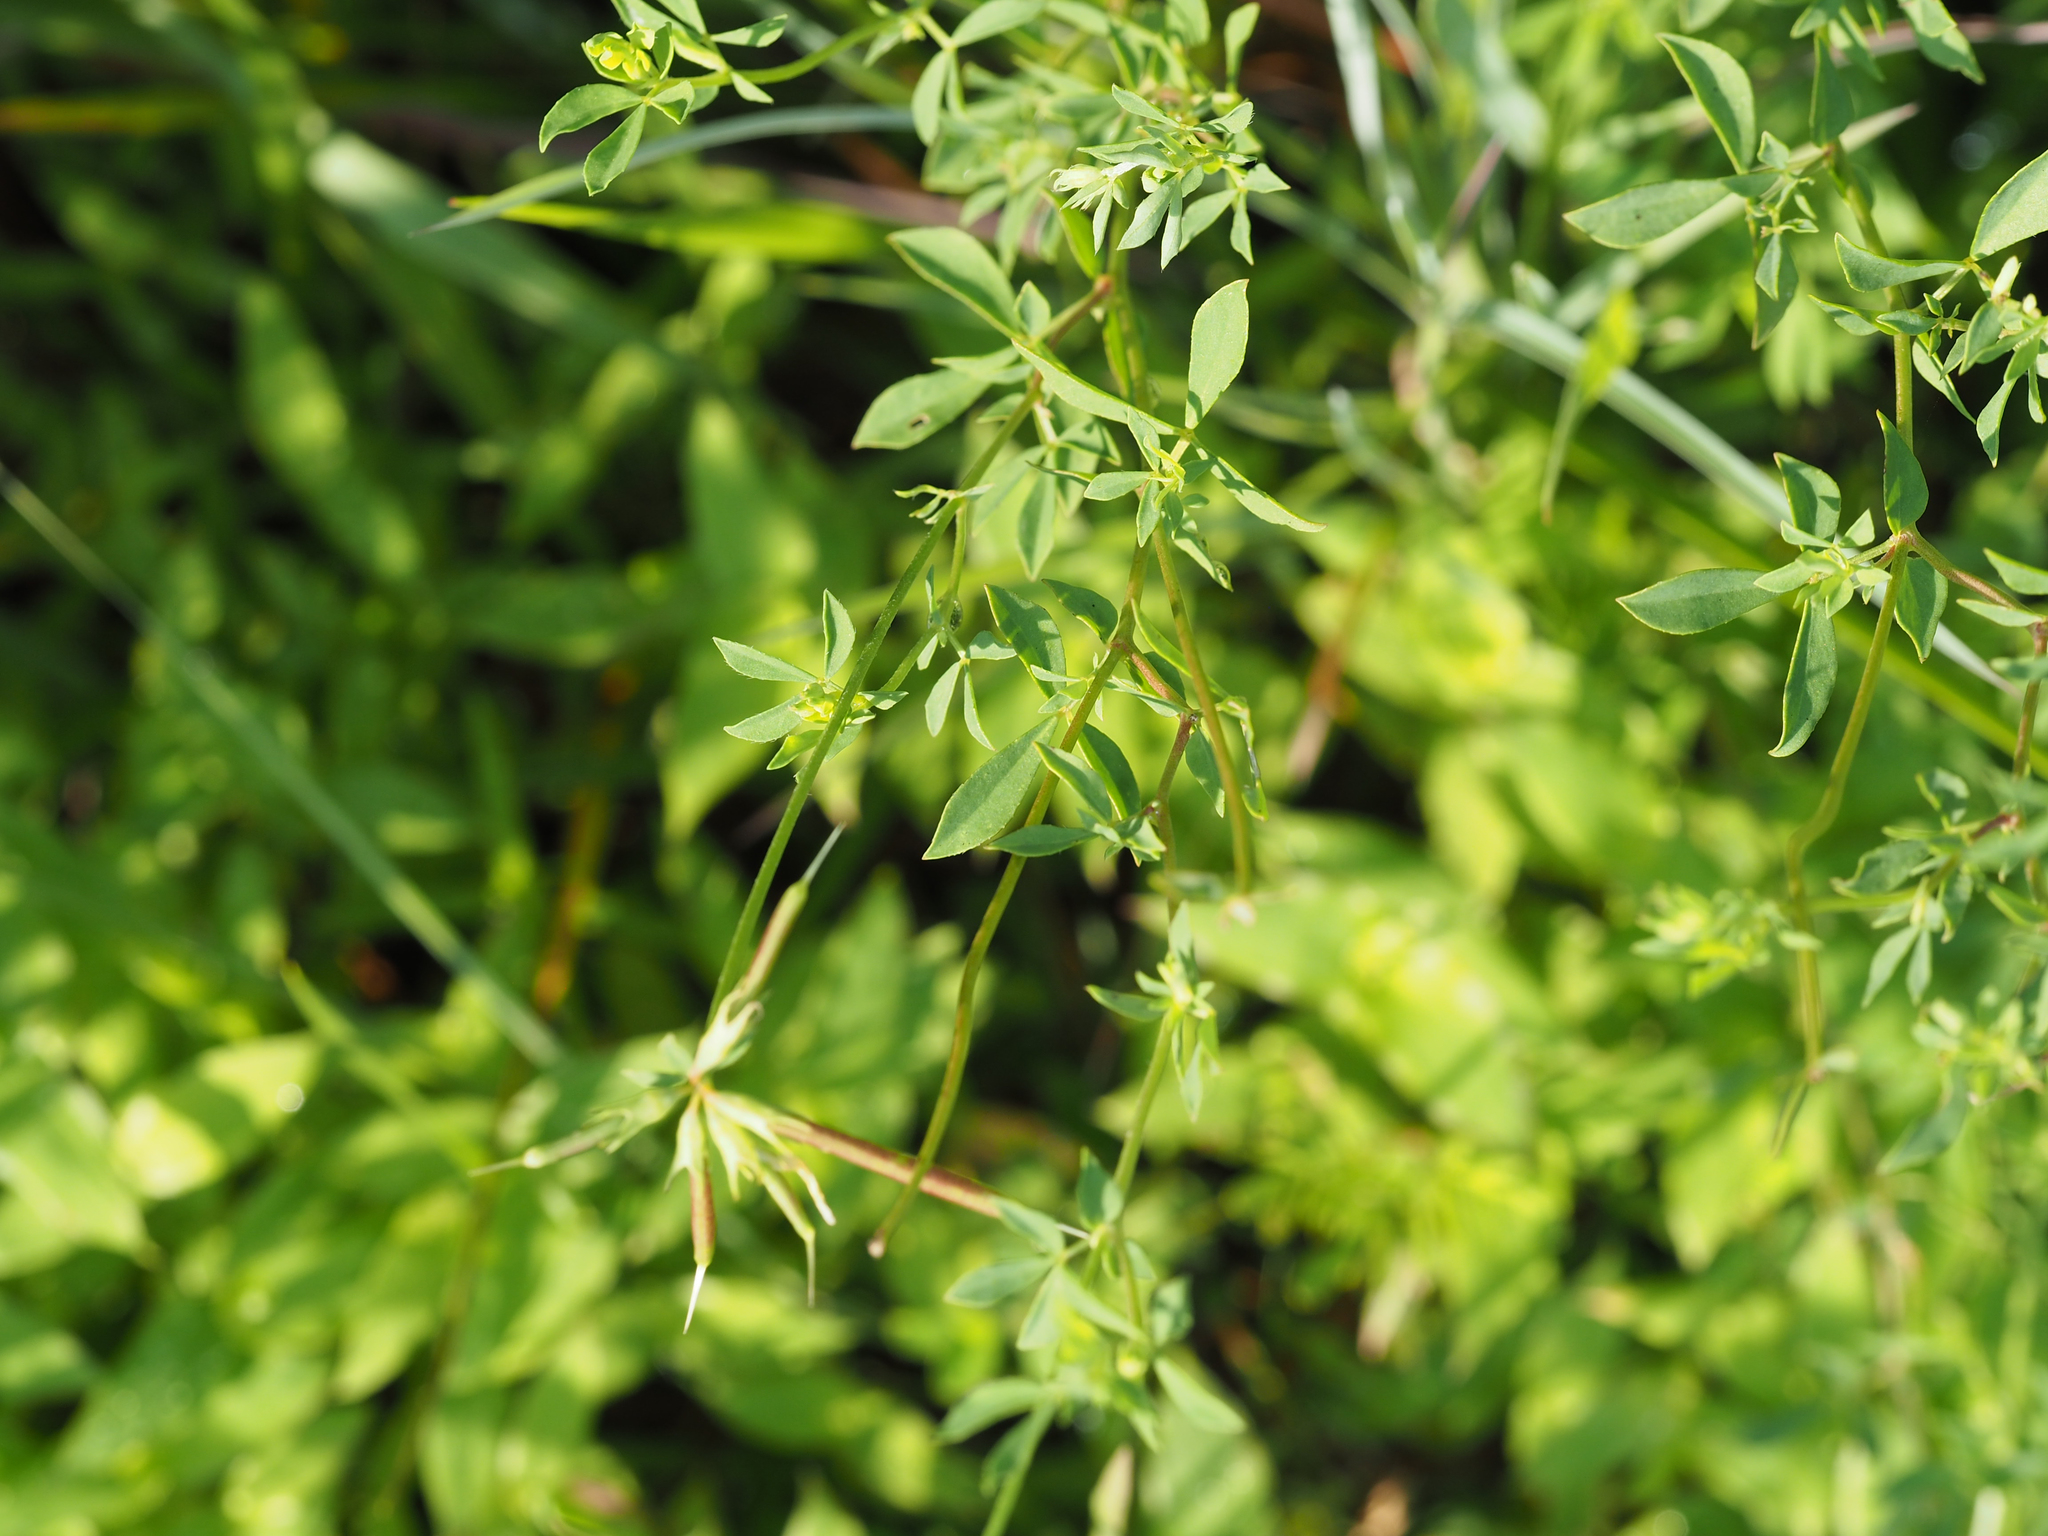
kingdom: Plantae
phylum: Tracheophyta
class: Magnoliopsida
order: Fabales
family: Fabaceae
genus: Lotus
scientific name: Lotus corniculatus
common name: Common bird's-foot-trefoil
